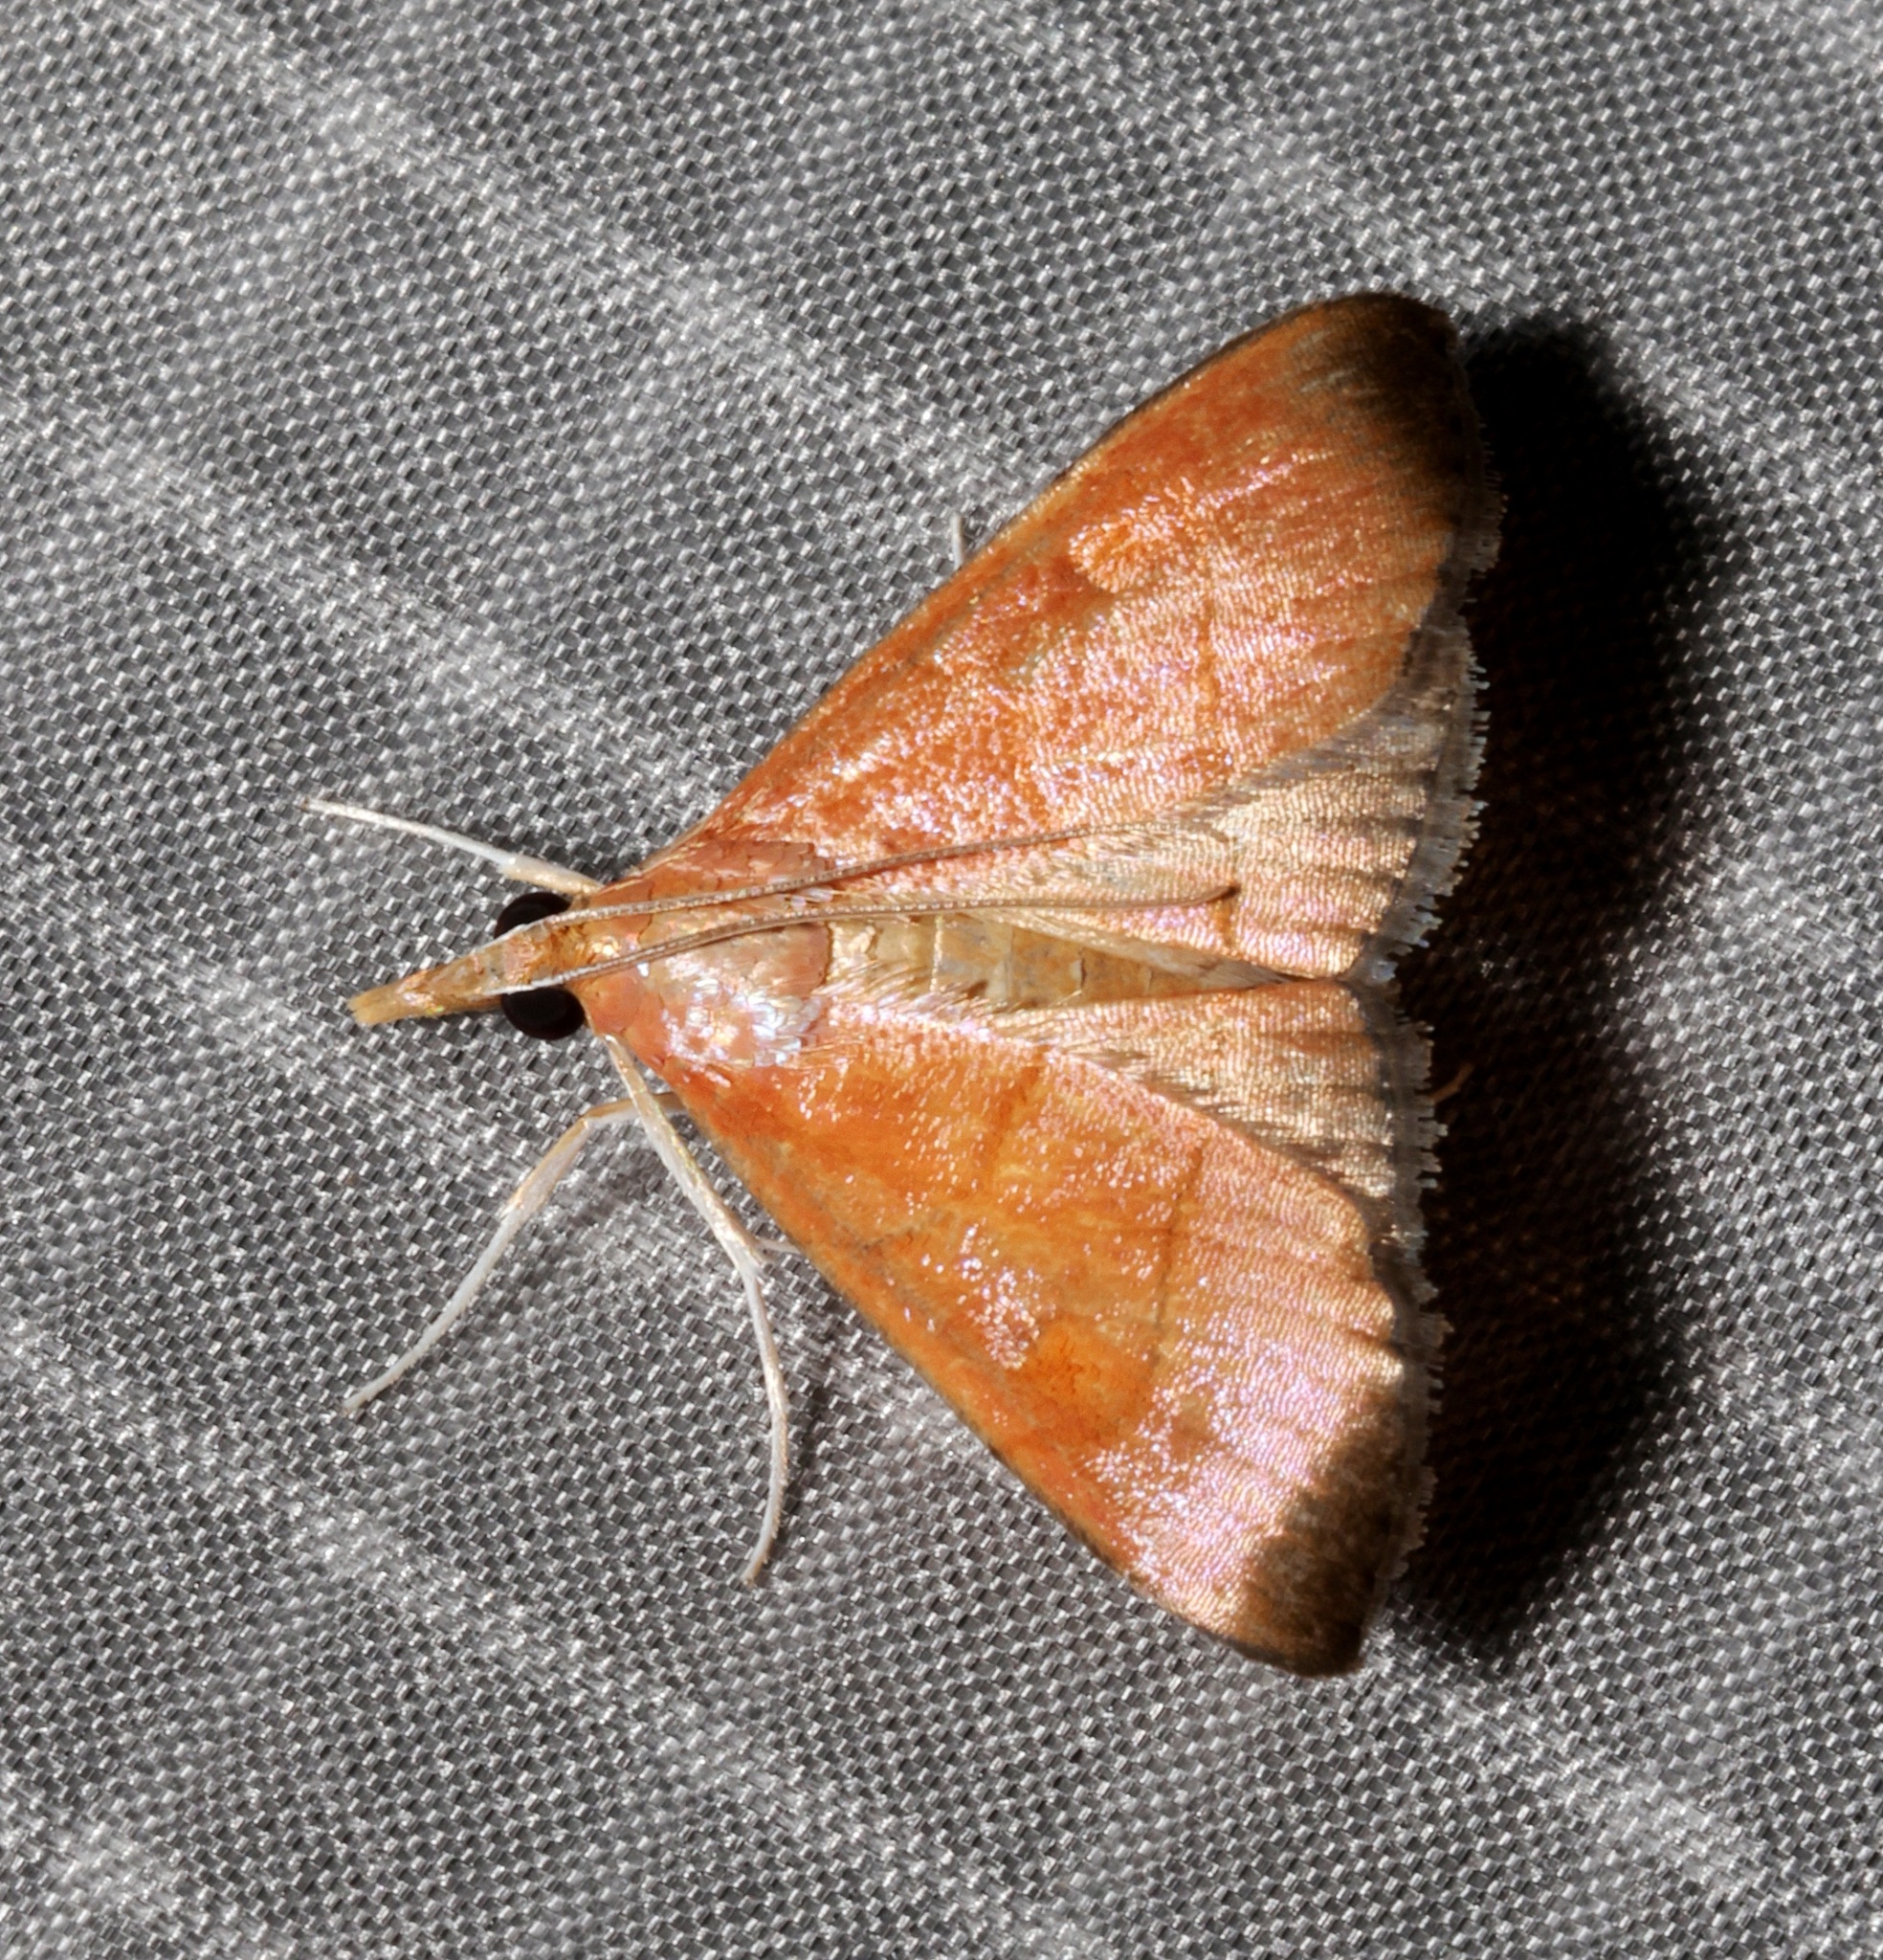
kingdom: Animalia
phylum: Arthropoda
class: Insecta
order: Lepidoptera
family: Crambidae
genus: Hemiscopis
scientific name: Hemiscopis sanguinea
